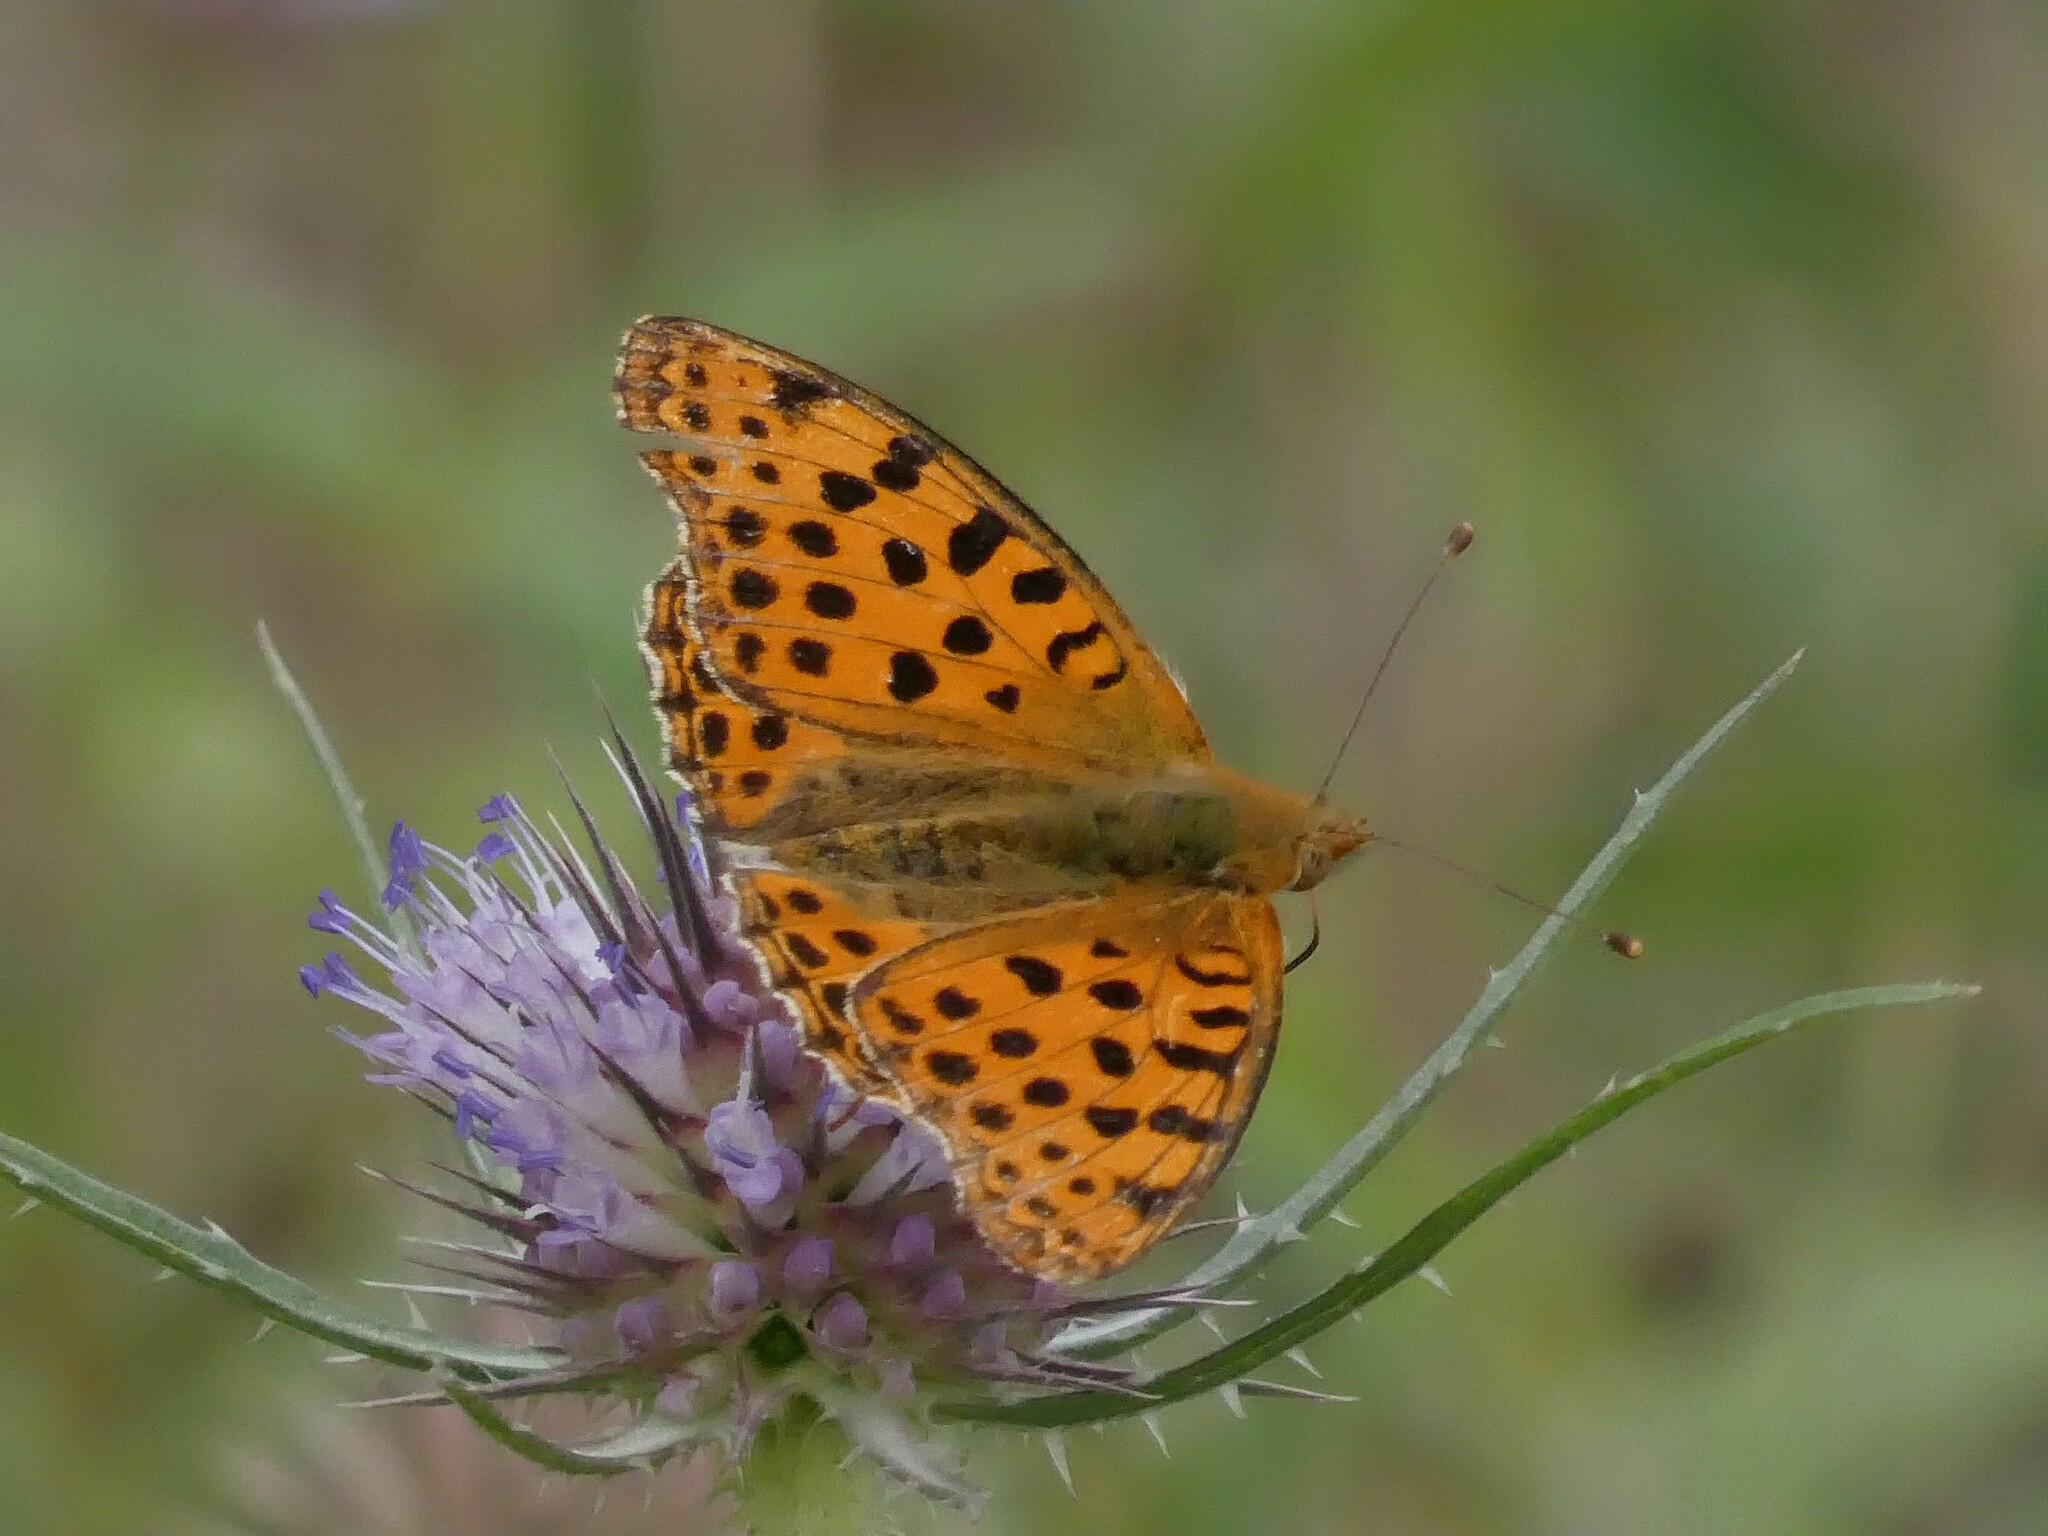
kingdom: Animalia
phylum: Arthropoda
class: Insecta
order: Lepidoptera
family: Nymphalidae
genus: Issoria
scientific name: Issoria lathonia
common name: Queen of spain fritillary
